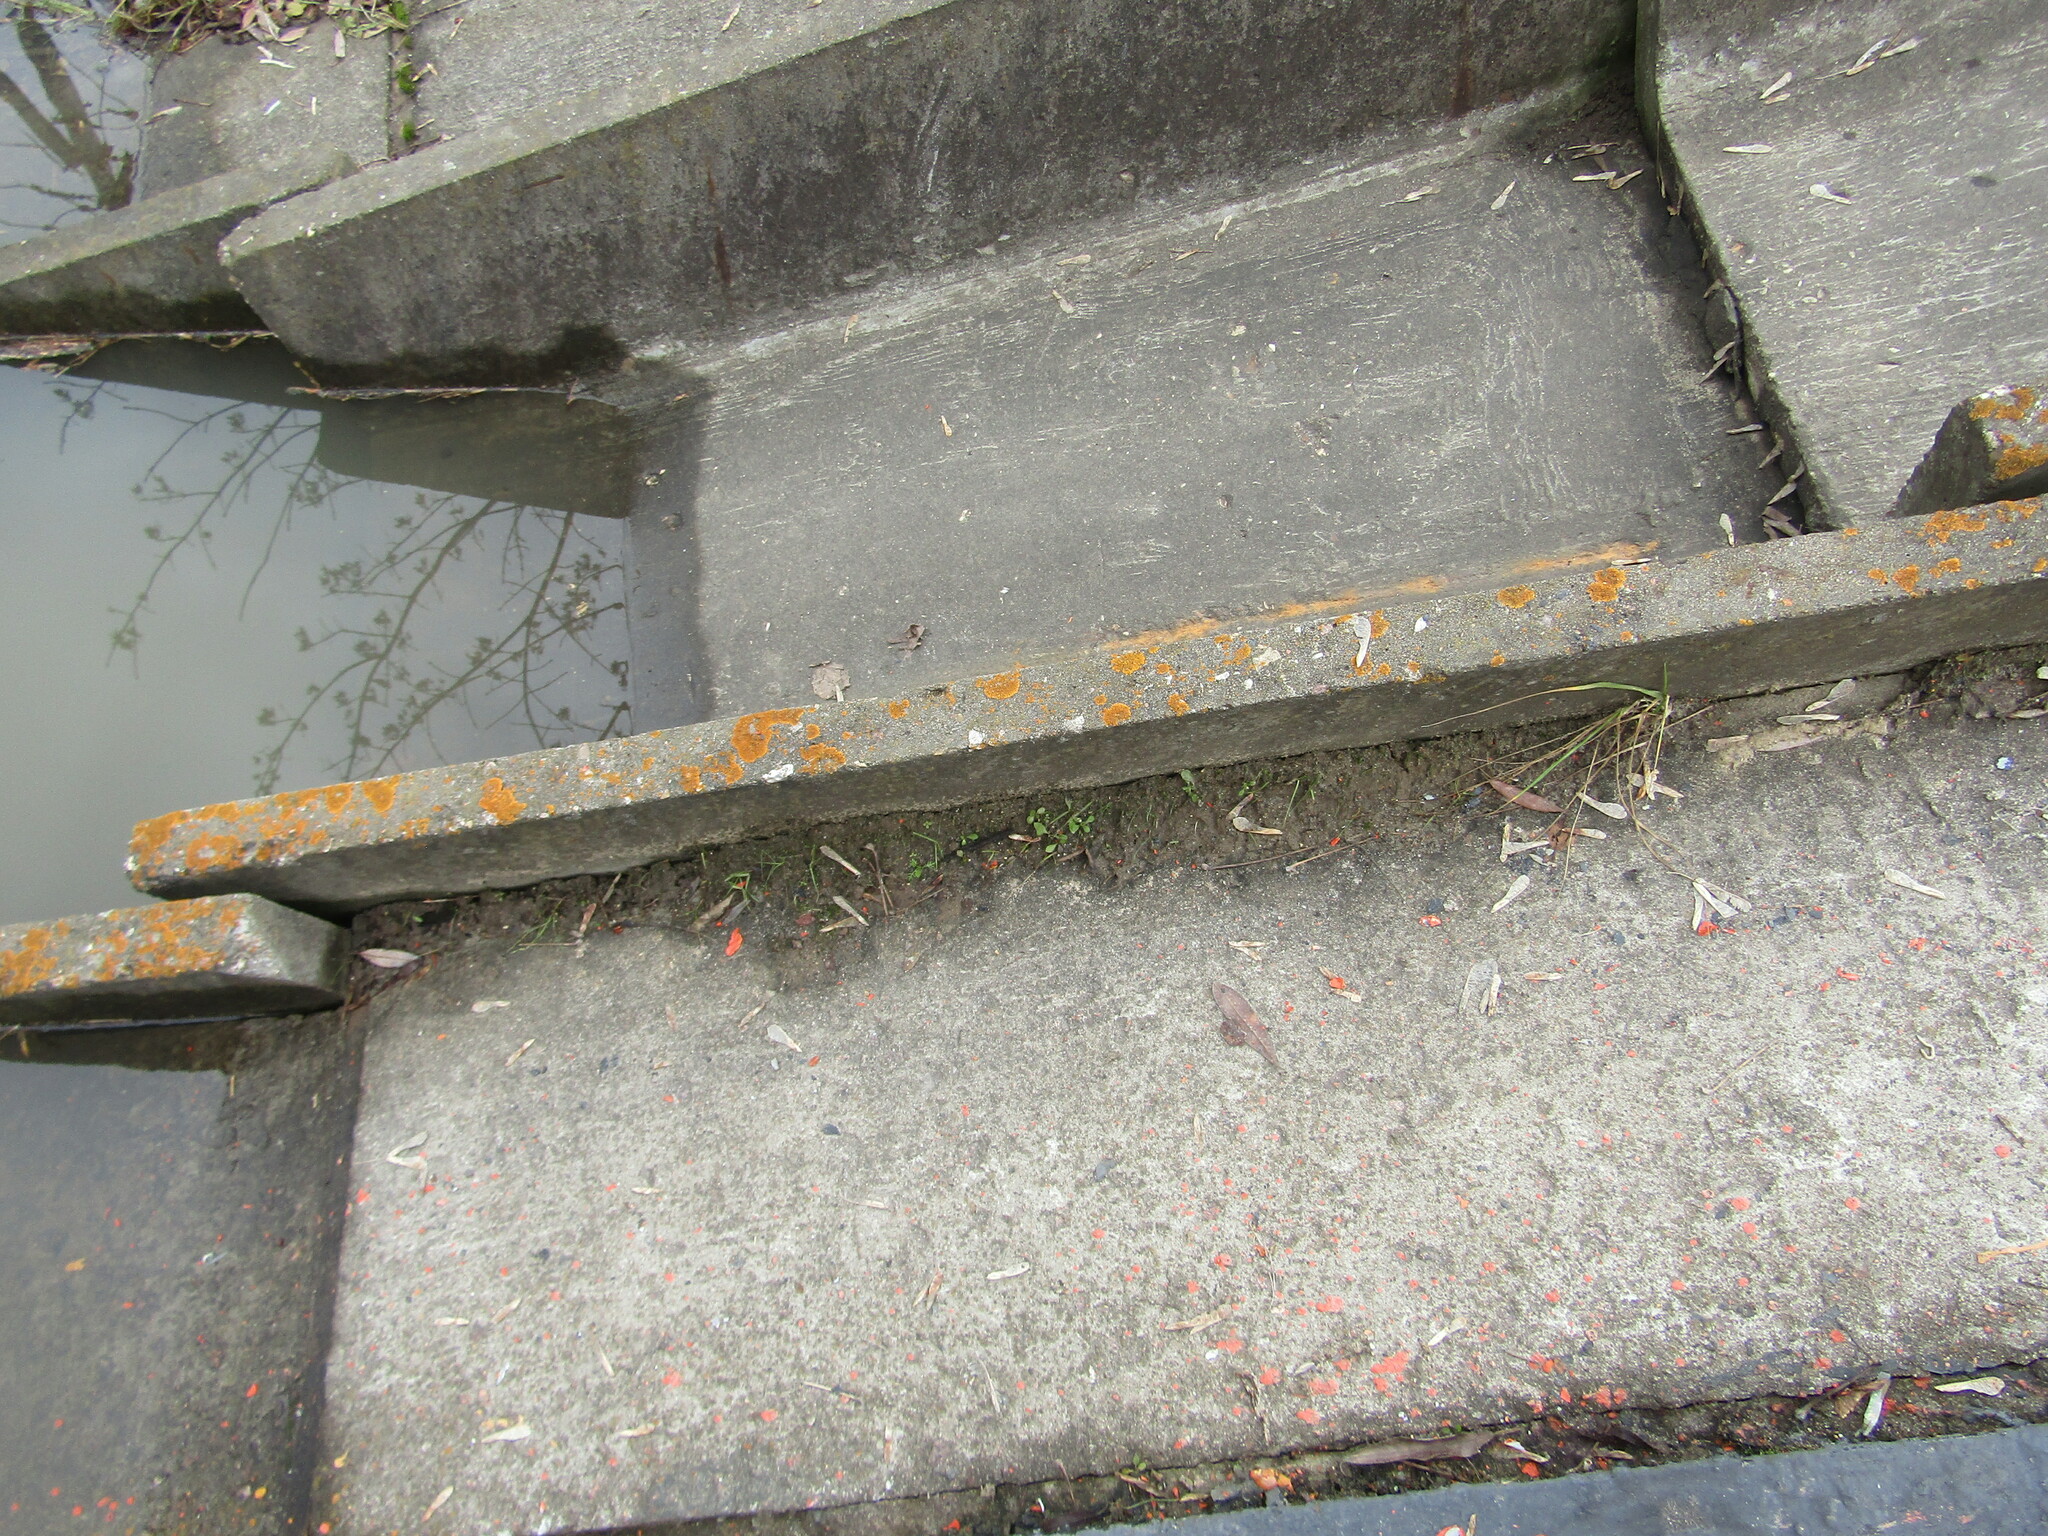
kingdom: Fungi
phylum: Ascomycota
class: Lecanoromycetes
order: Teloschistales
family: Teloschistaceae
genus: Xanthoria
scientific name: Xanthoria elegans
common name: Elegant sunburst lichen
